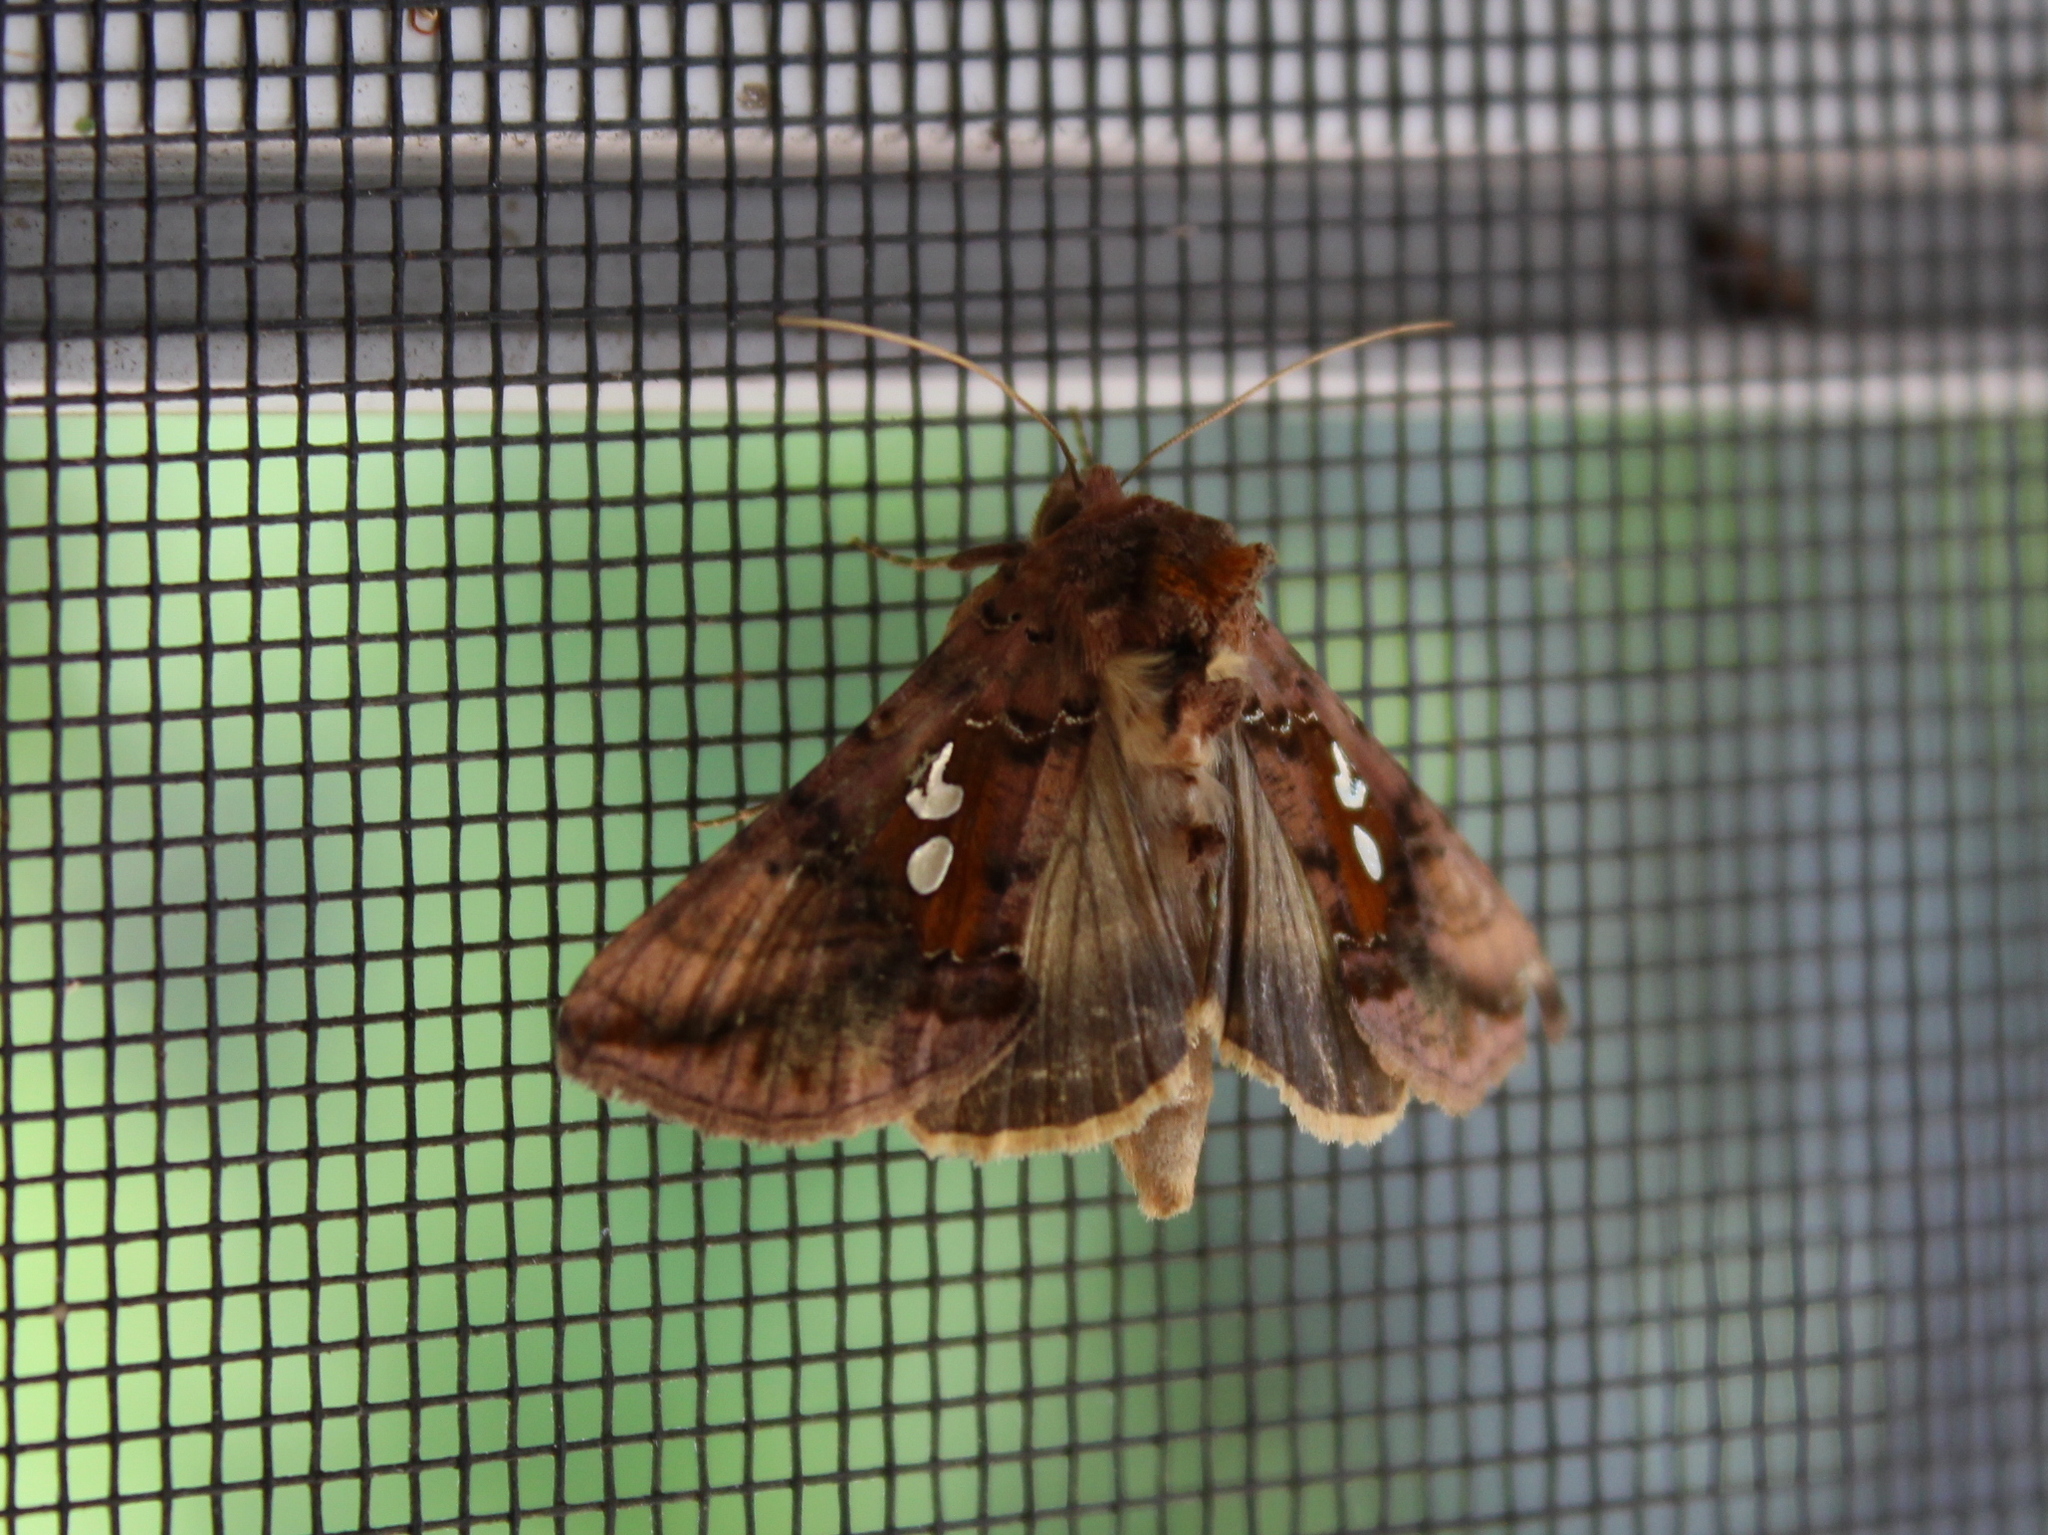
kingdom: Animalia
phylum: Arthropoda
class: Insecta
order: Lepidoptera
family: Noctuidae
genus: Autographa
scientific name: Autographa bimaculata
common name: Double-spotted spangle
